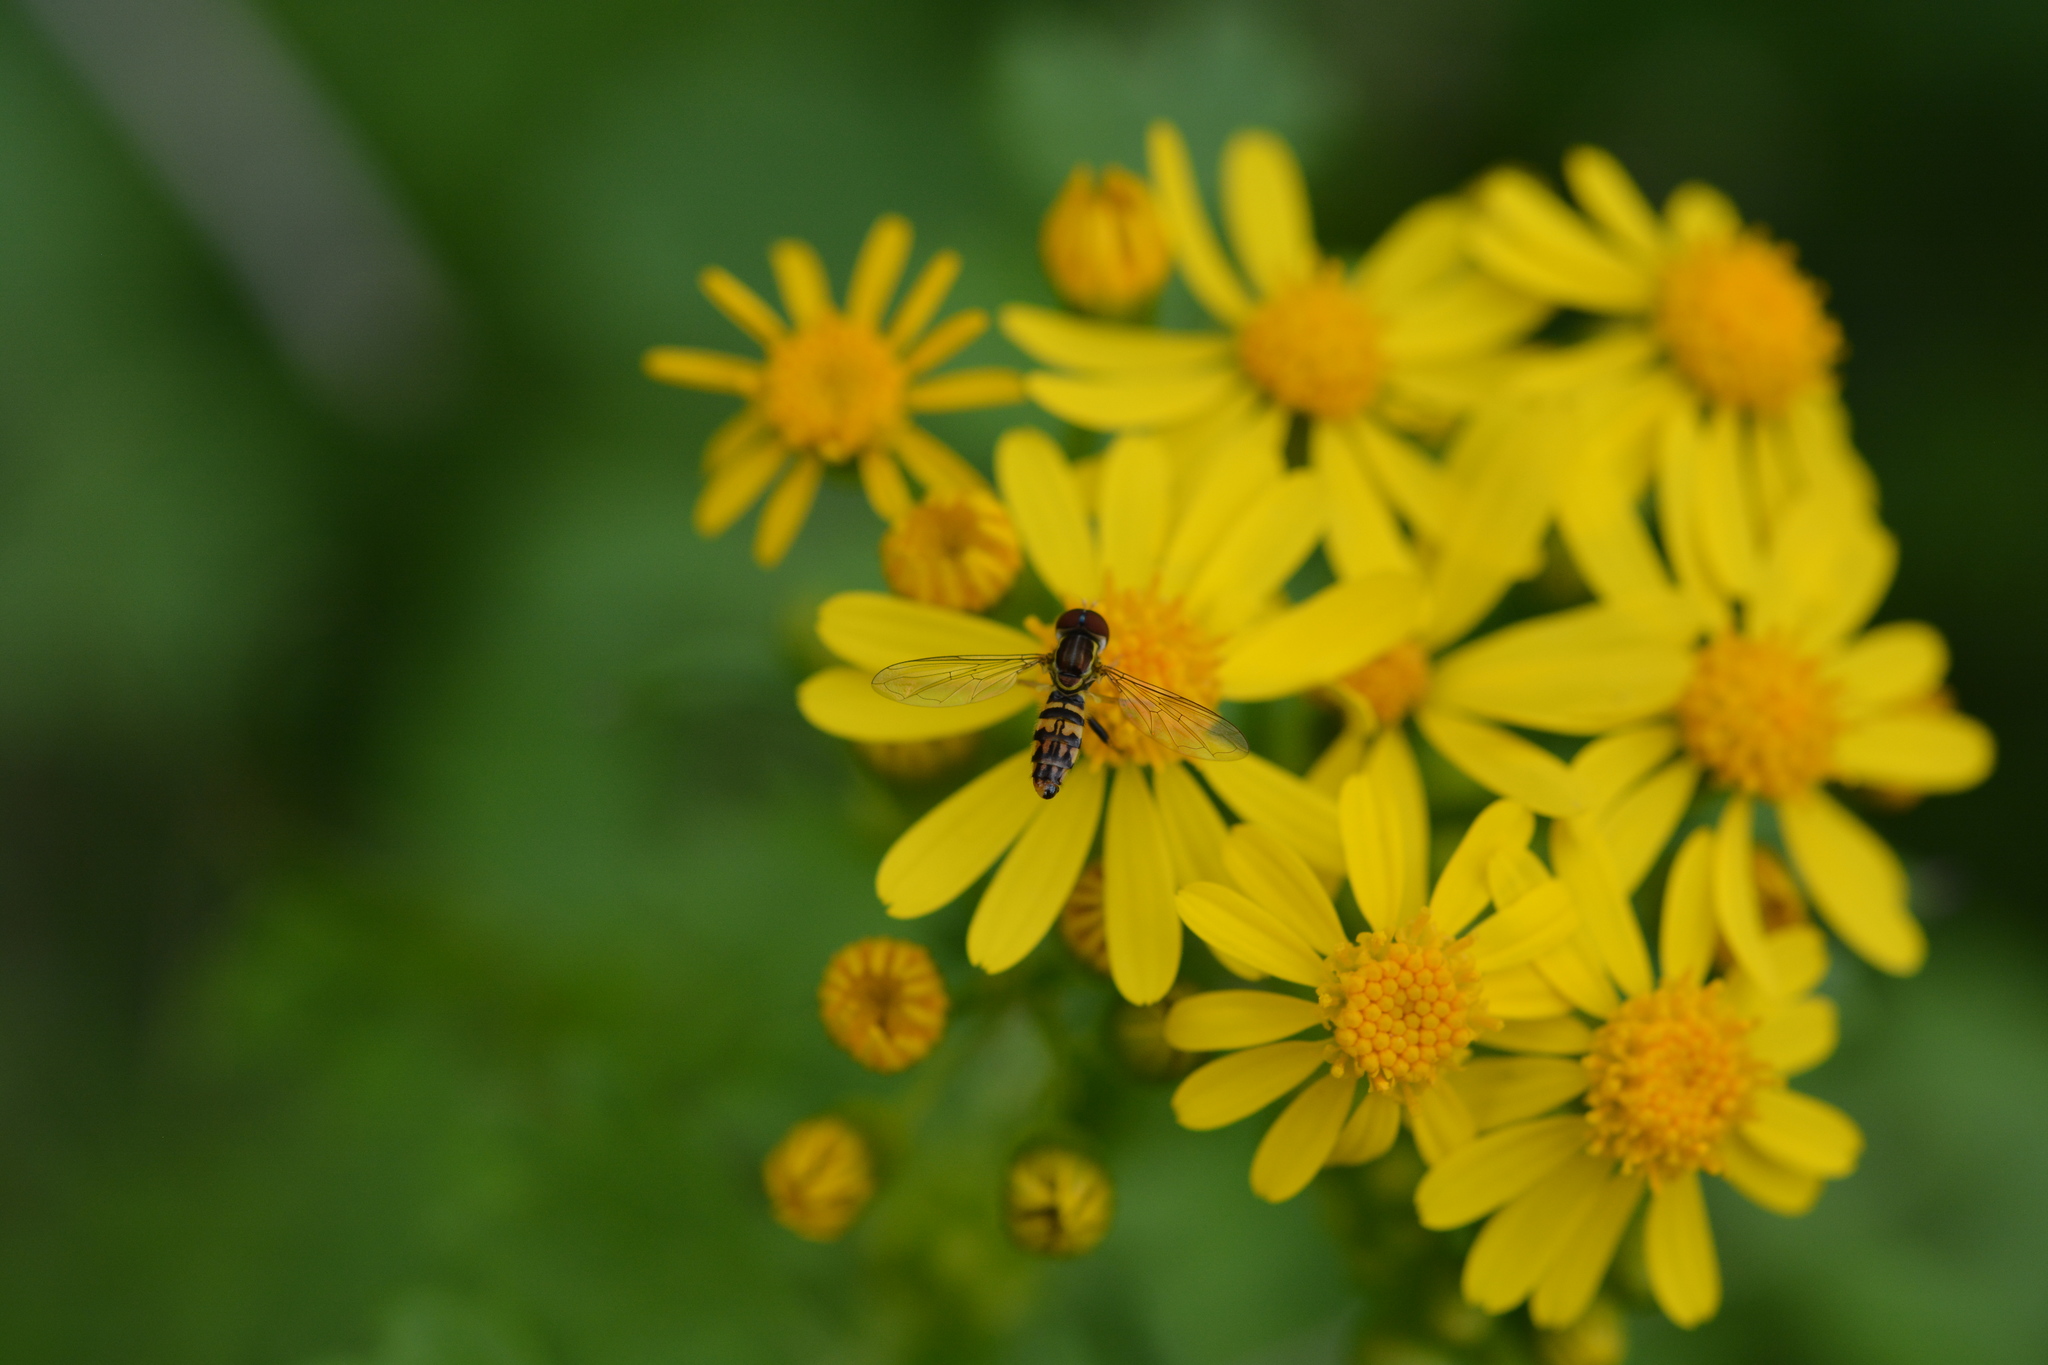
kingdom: Animalia
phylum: Arthropoda
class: Insecta
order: Diptera
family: Syrphidae
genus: Toxomerus
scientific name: Toxomerus geminatus
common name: Eastern calligrapher
